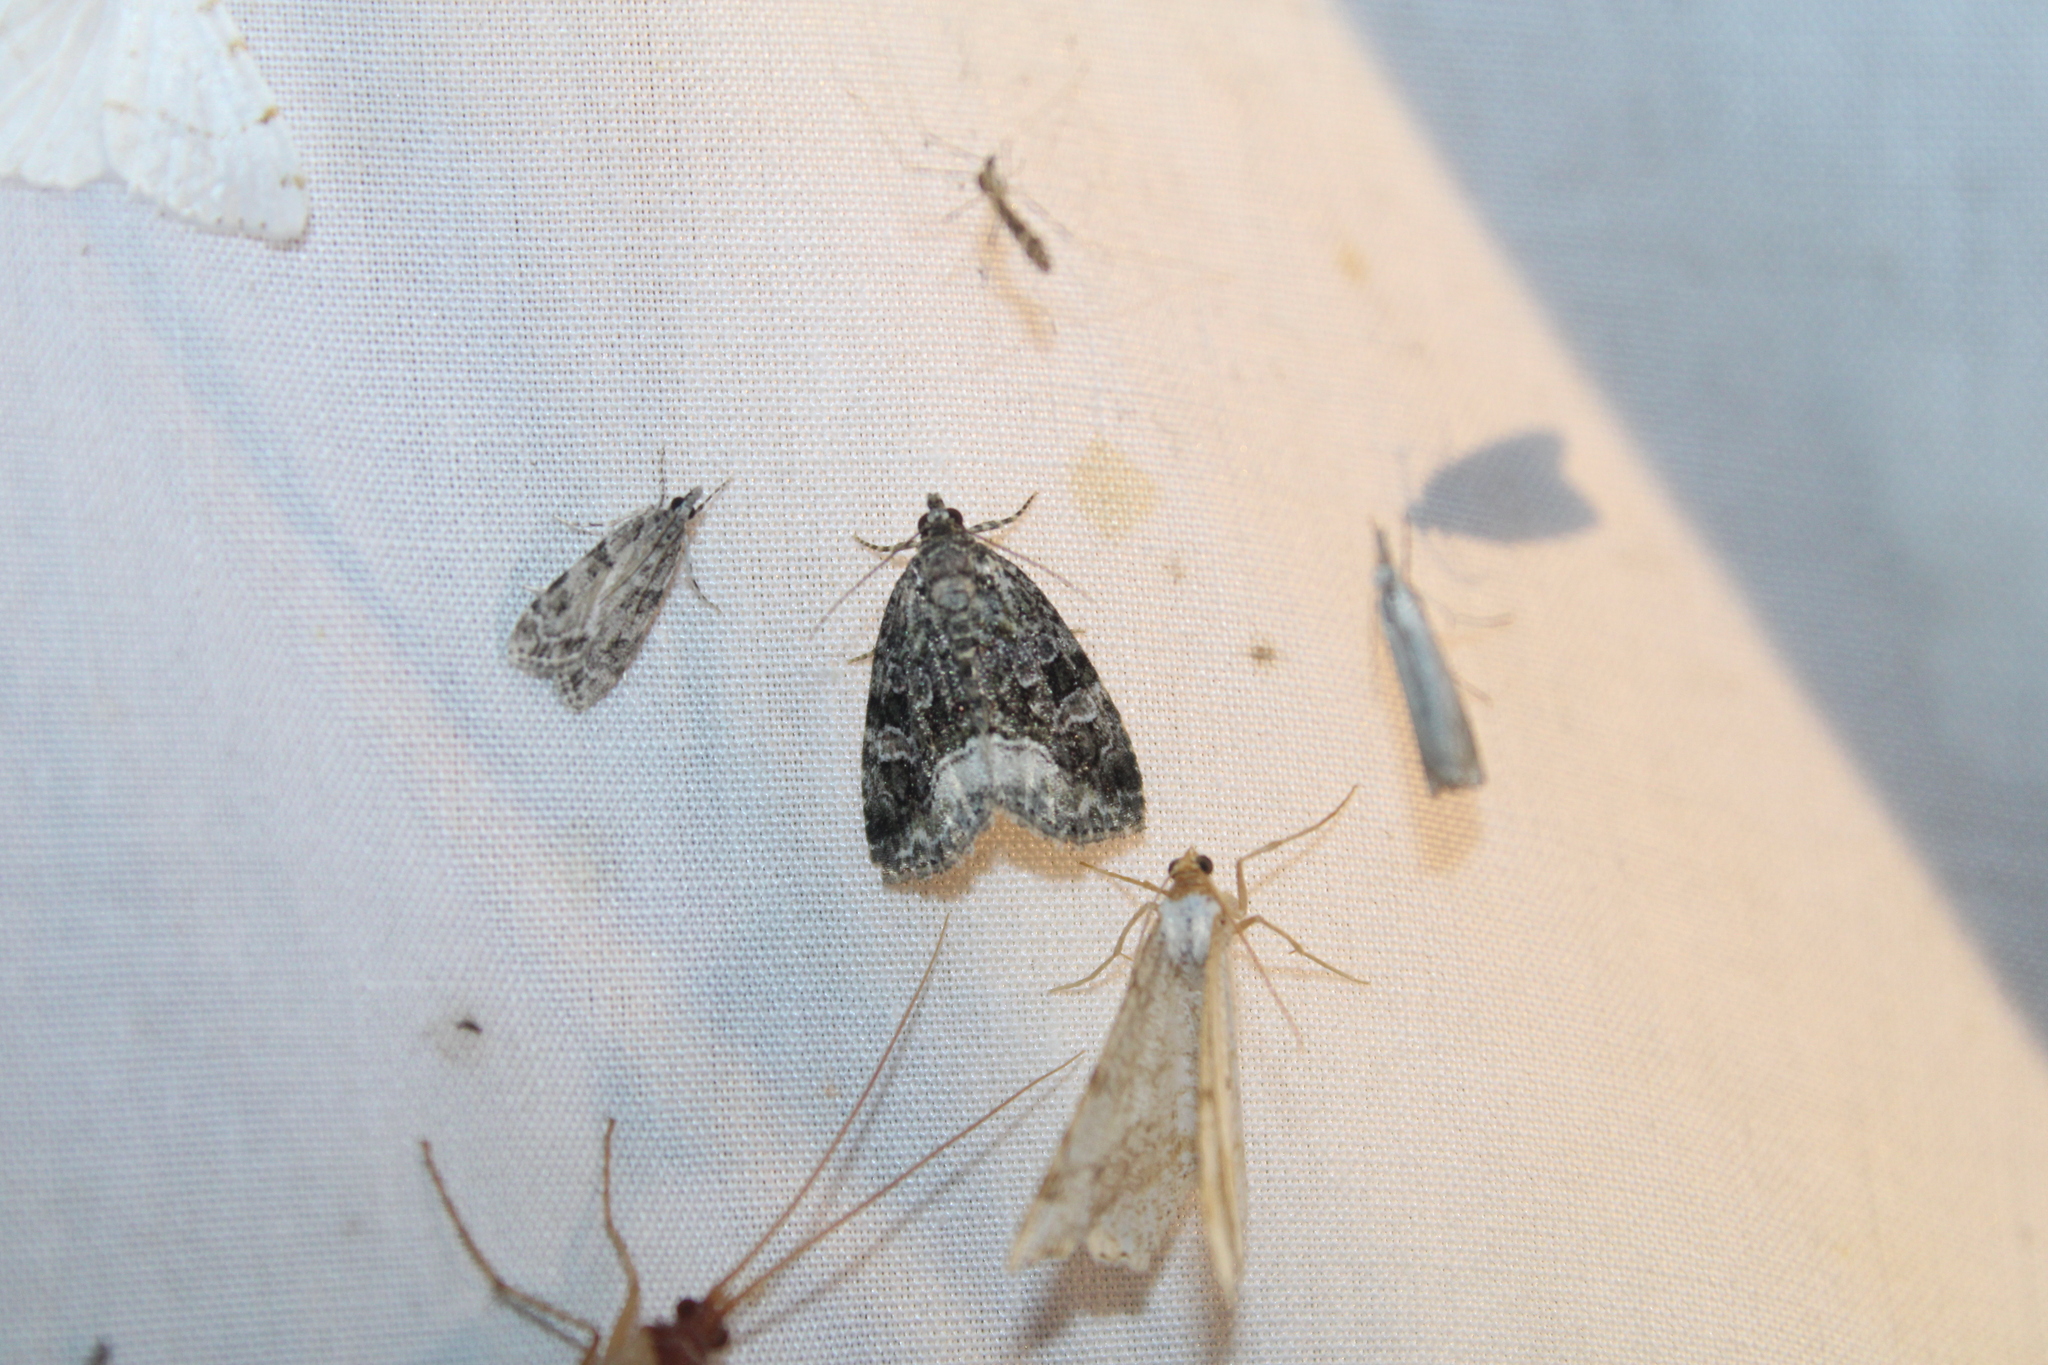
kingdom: Animalia
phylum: Arthropoda
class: Insecta
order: Lepidoptera
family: Noctuidae
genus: Protodeltote
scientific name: Protodeltote muscosula
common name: Large mossy glyph
